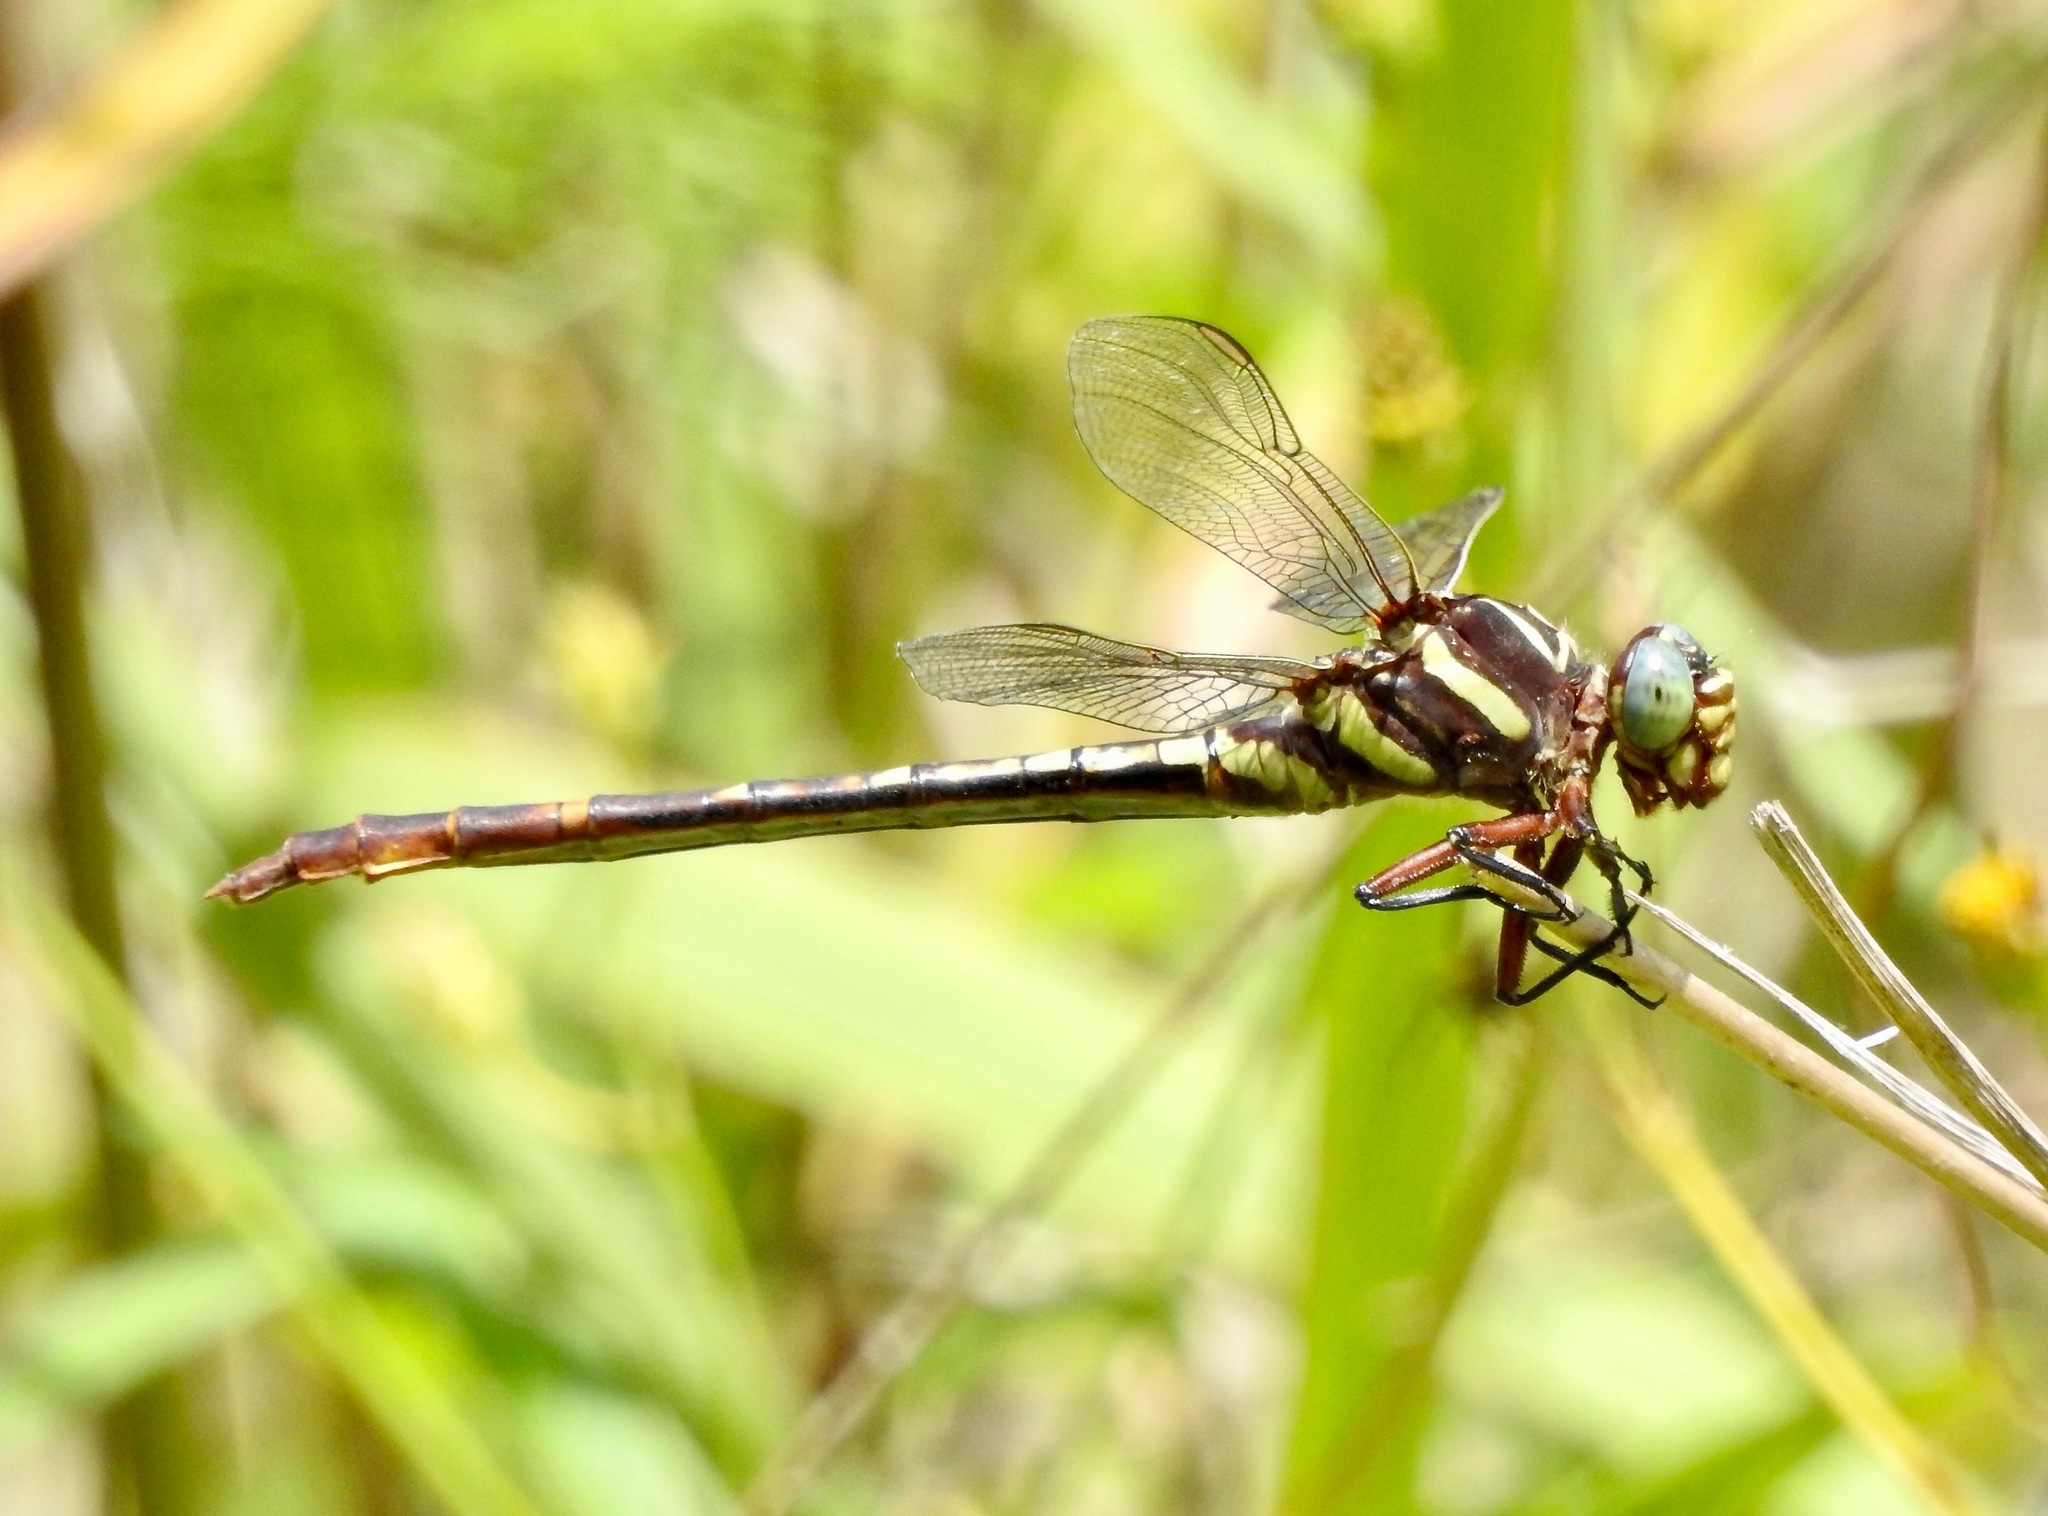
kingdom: Animalia
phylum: Arthropoda
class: Insecta
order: Odonata
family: Gomphidae
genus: Aphylla
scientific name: Aphylla williamsoni
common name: Two-striped forceptail
